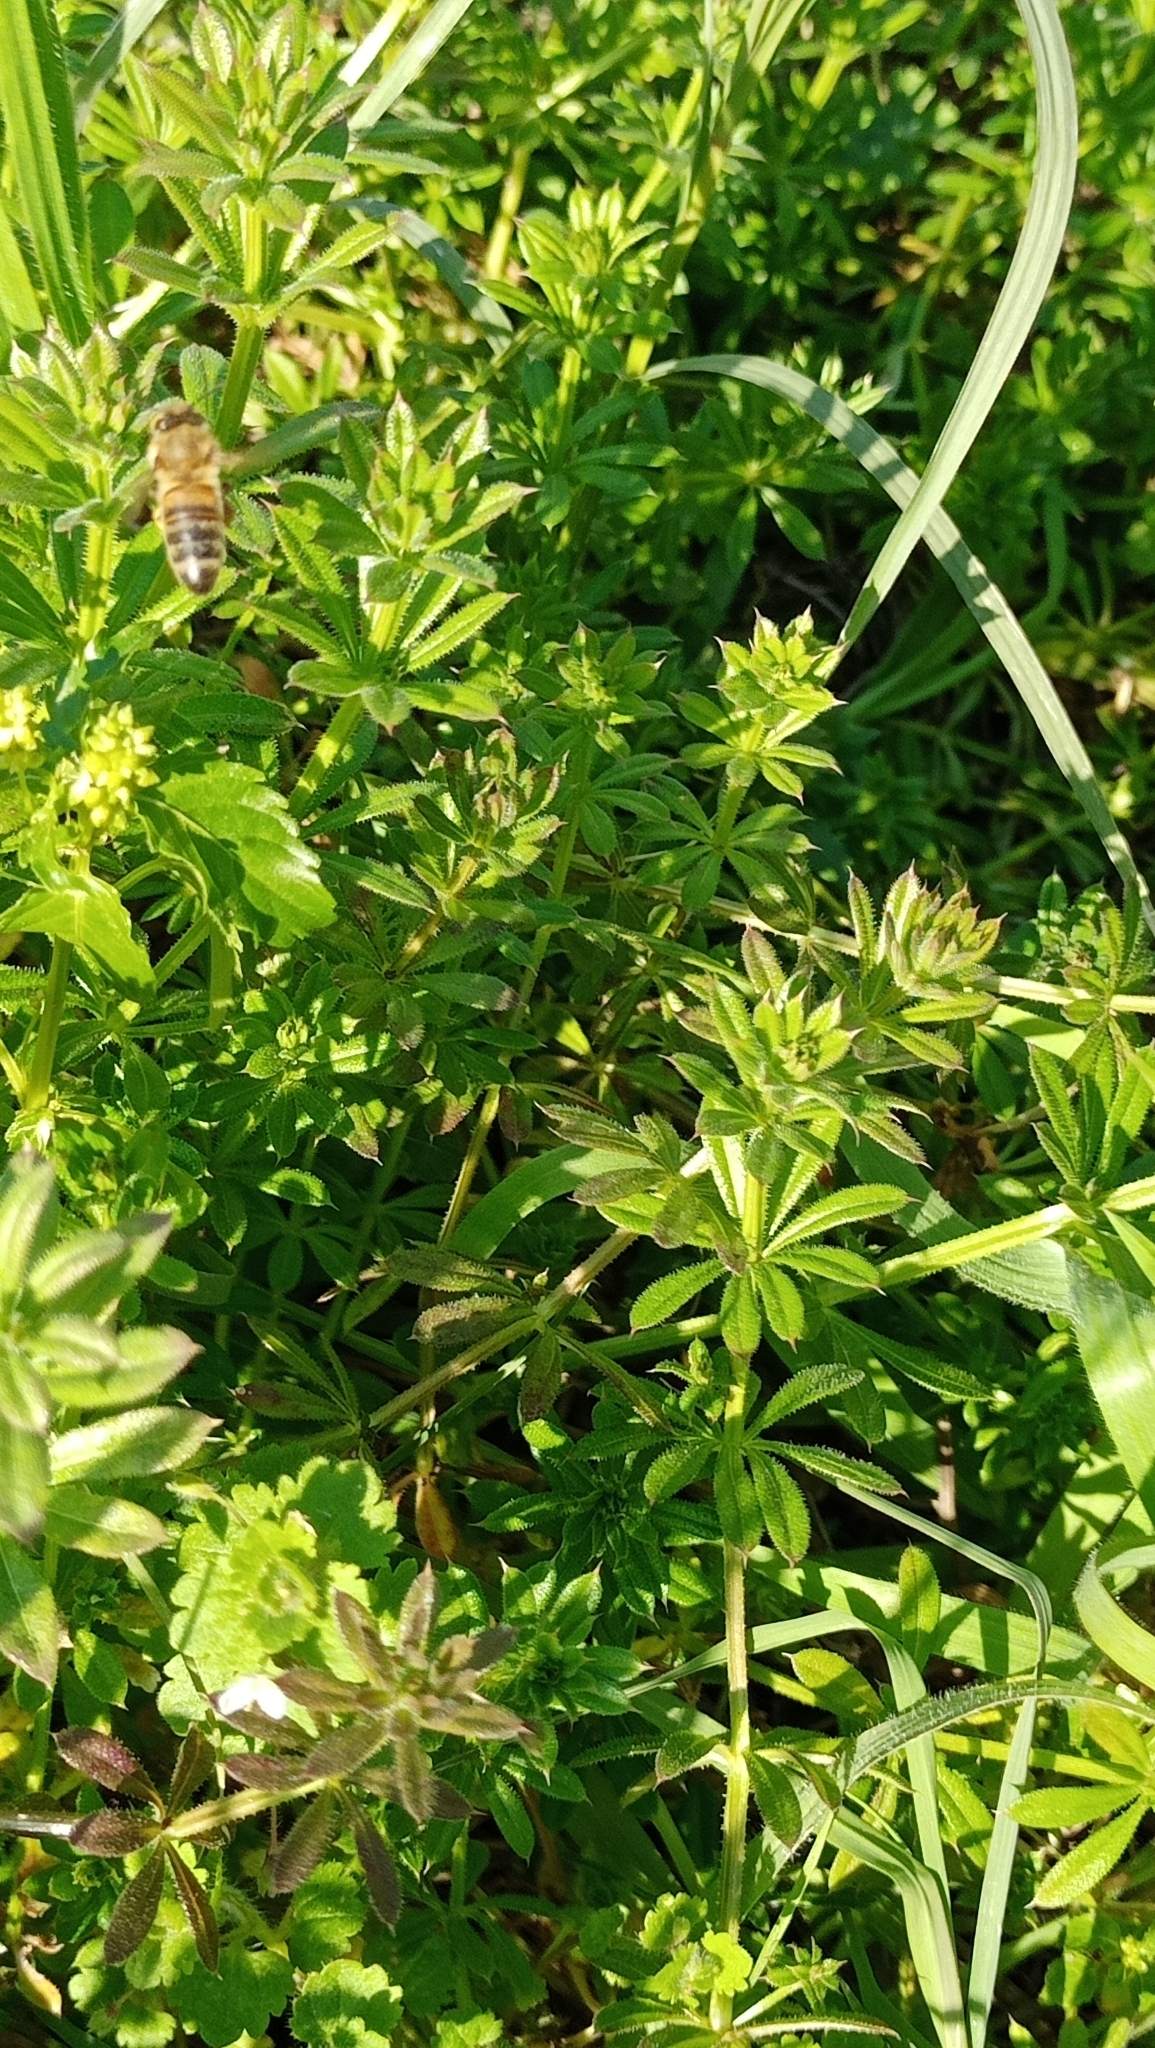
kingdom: Animalia
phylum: Arthropoda
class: Insecta
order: Hymenoptera
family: Apidae
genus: Apis
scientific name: Apis mellifera
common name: Honey bee
